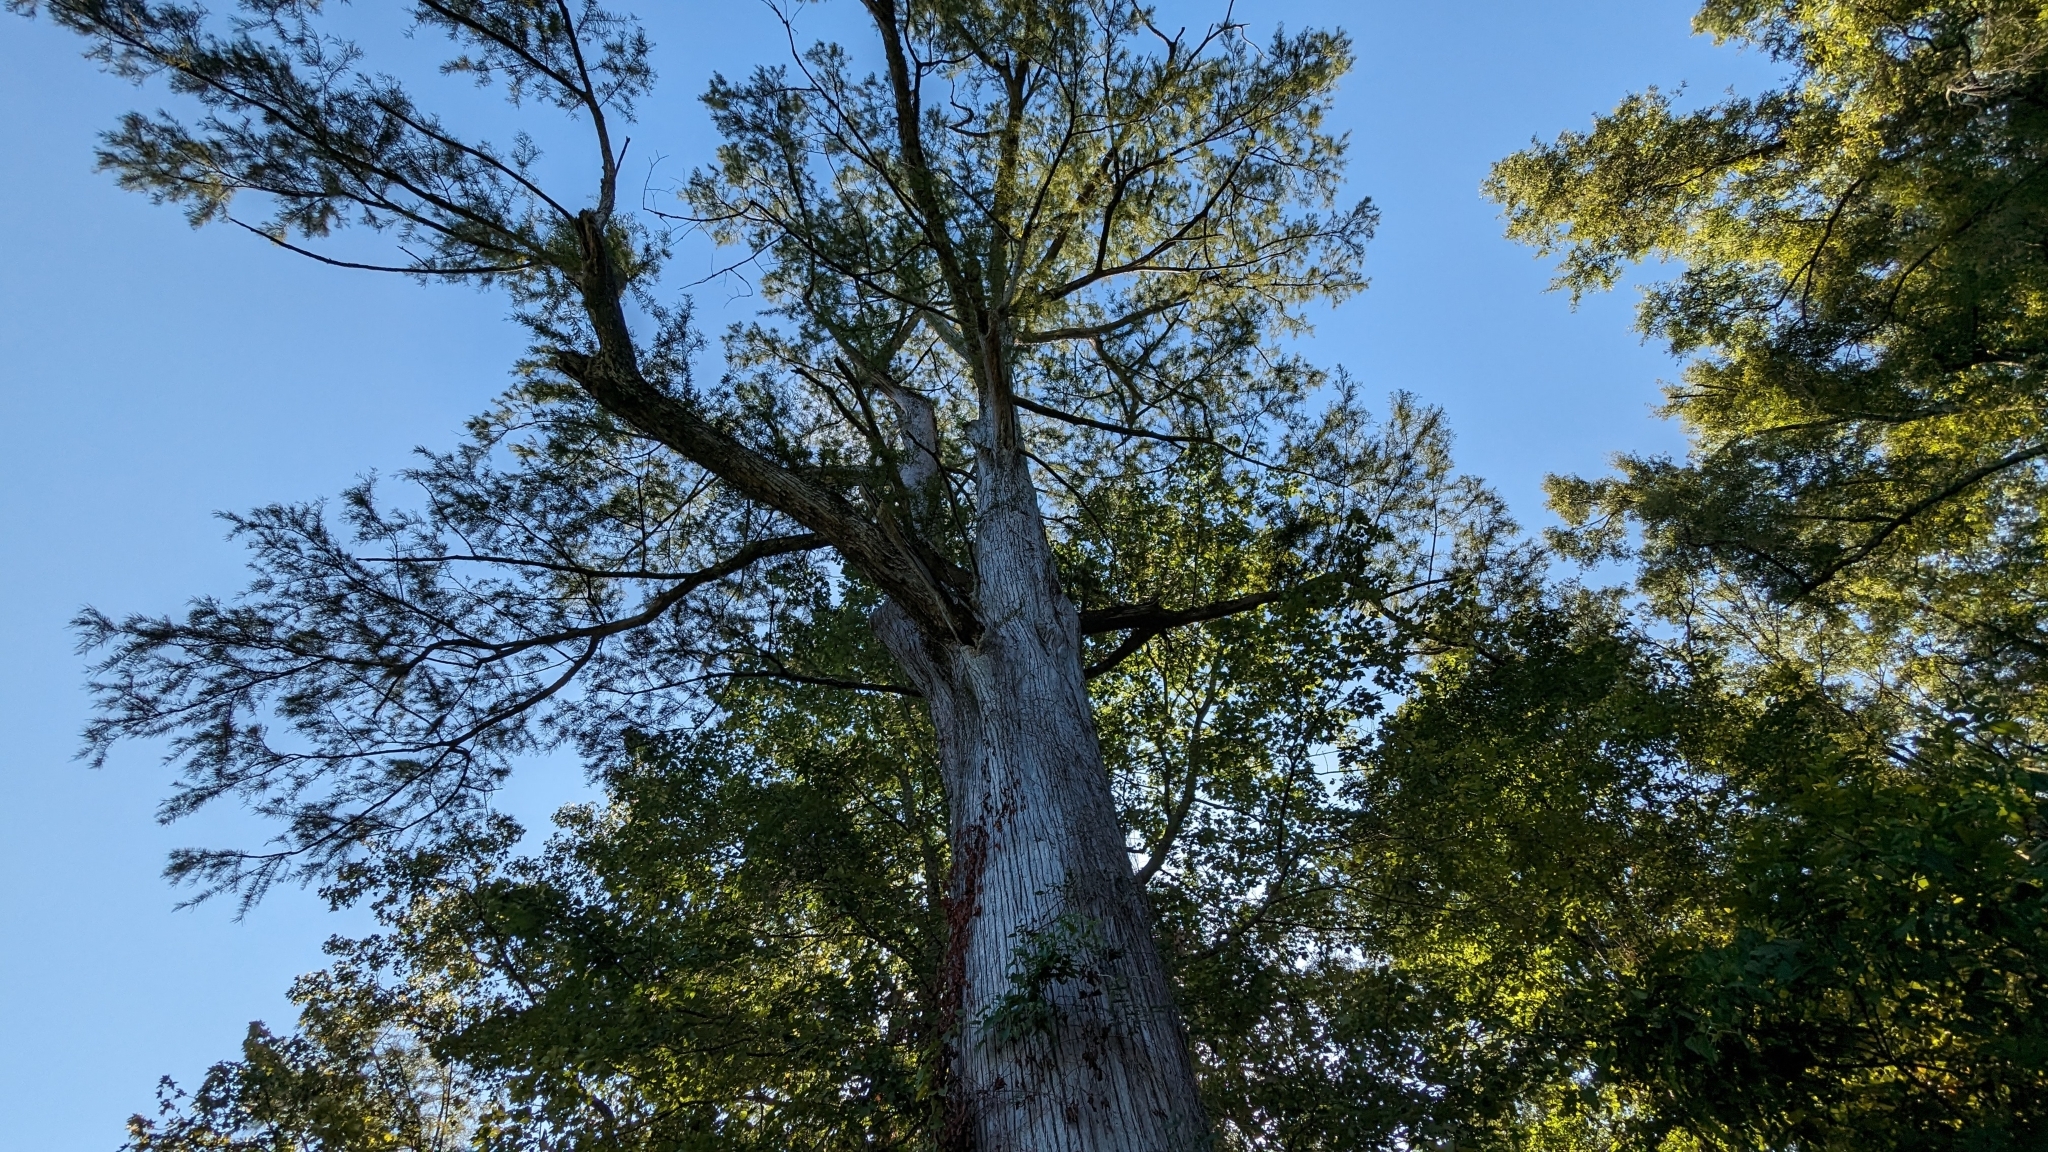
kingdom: Plantae
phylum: Tracheophyta
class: Pinopsida
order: Pinales
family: Cupressaceae
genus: Taxodium
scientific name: Taxodium distichum
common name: Bald cypress
